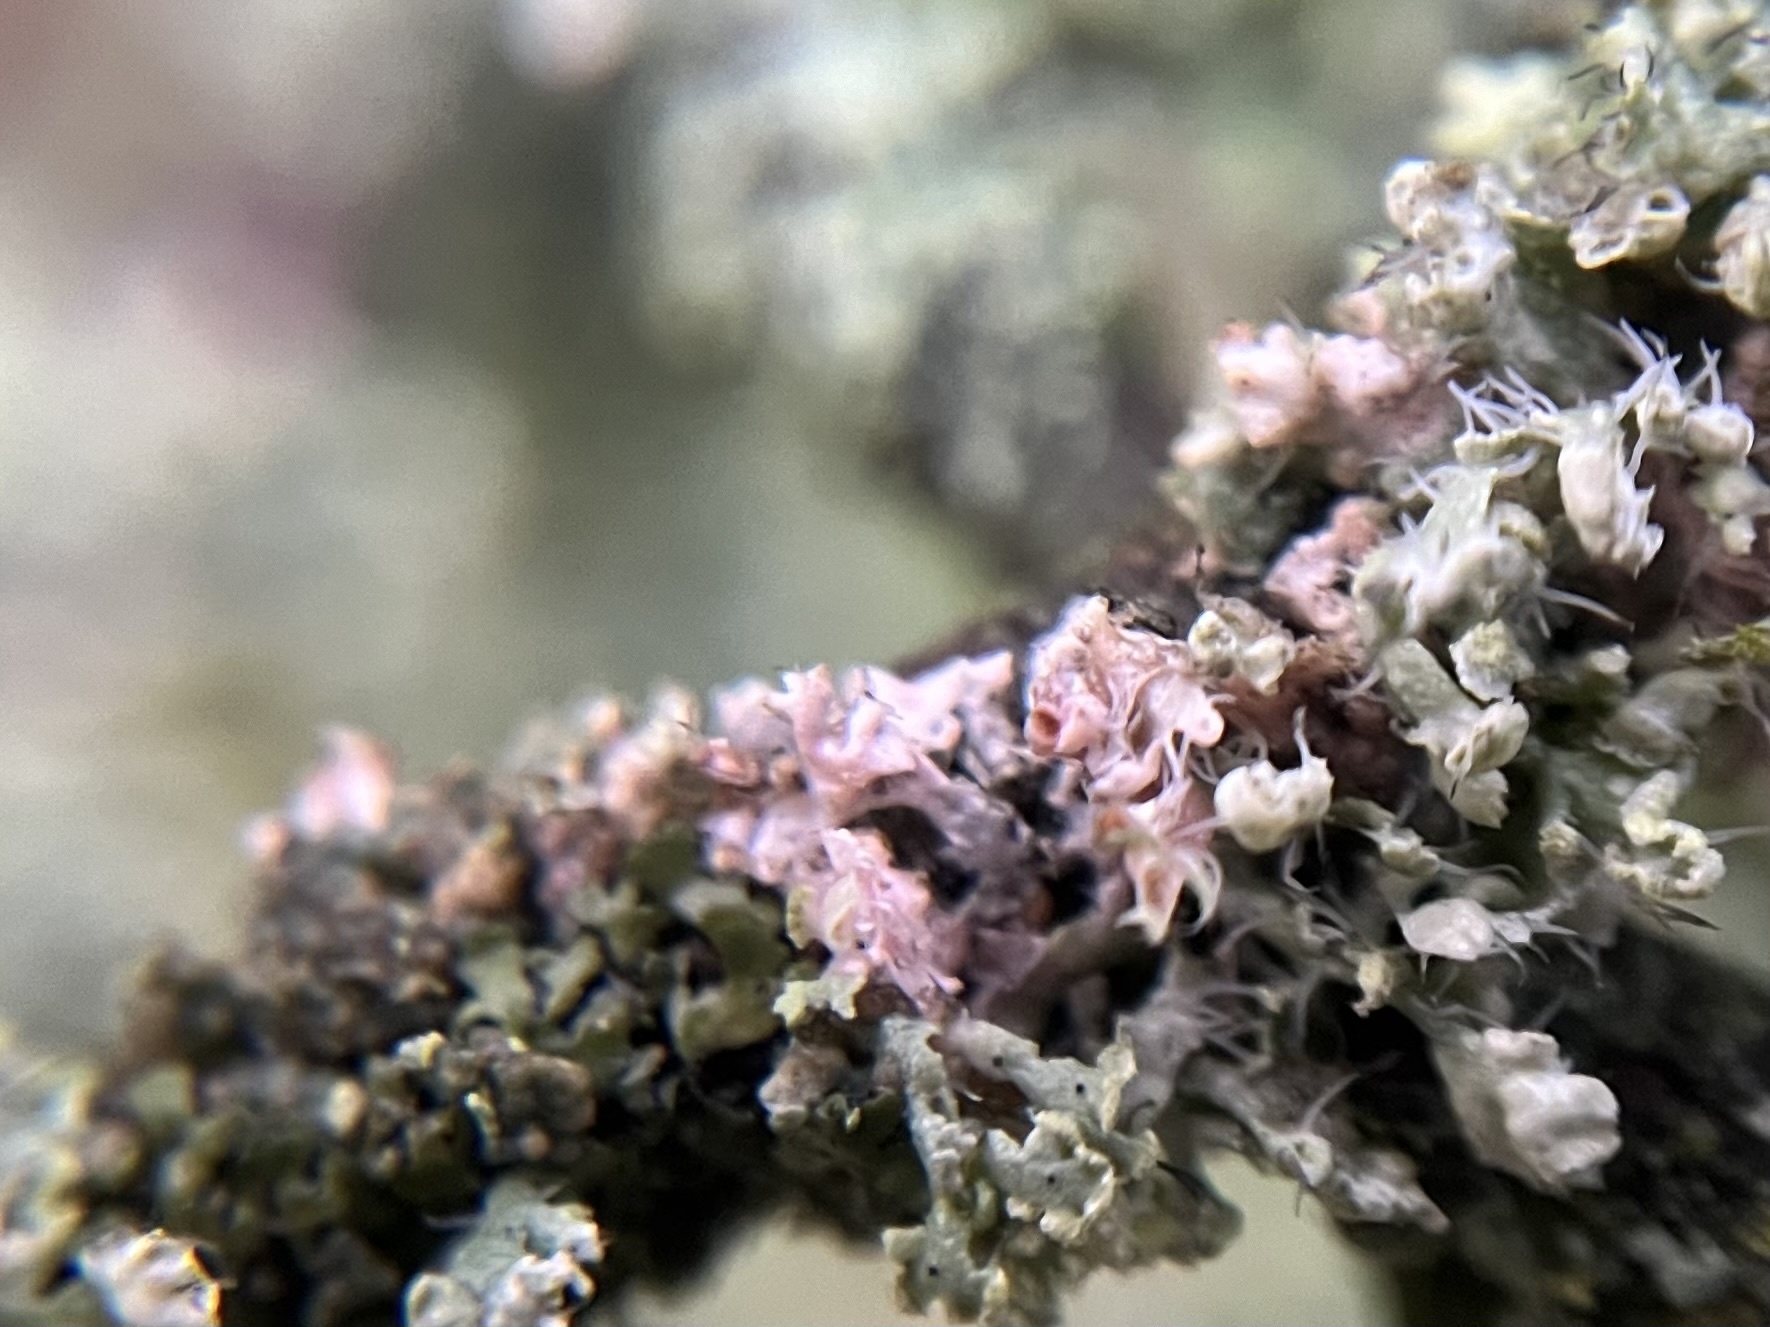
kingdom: Fungi
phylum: Basidiomycota
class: Agaricomycetes
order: Corticiales
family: Corticiaceae
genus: Laetisaria
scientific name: Laetisaria lichenicola
